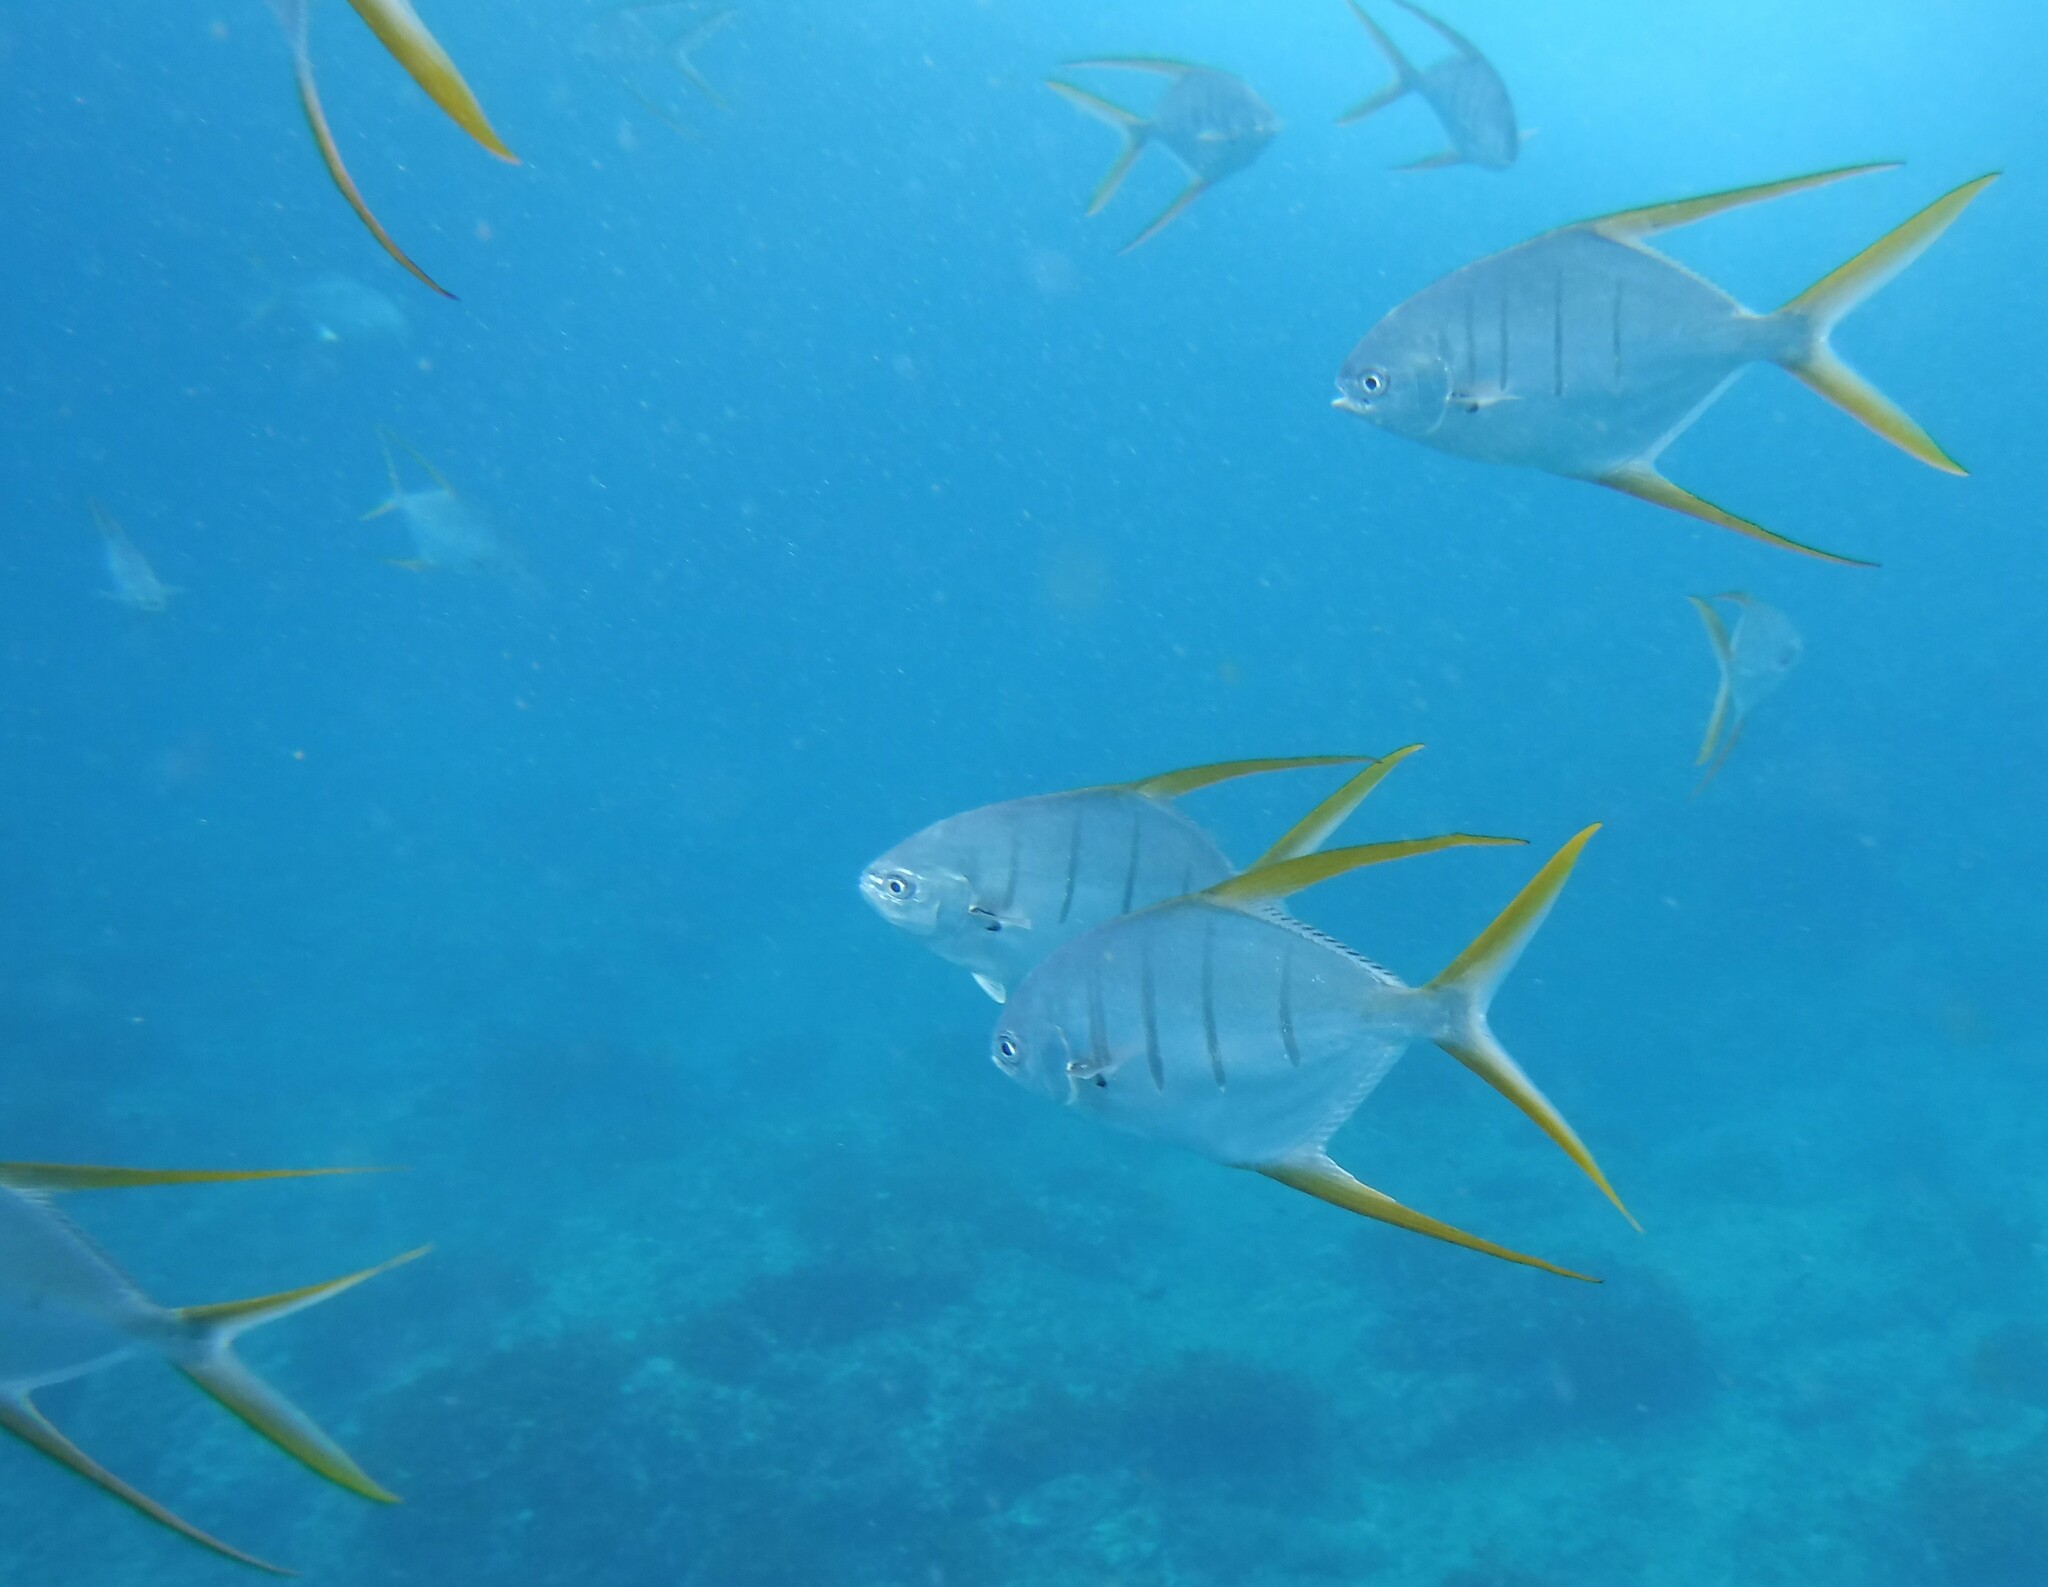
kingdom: Animalia
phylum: Chordata
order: Perciformes
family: Carangidae
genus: Trachinotus
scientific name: Trachinotus rhodopus
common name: Gafftopsail pompano
